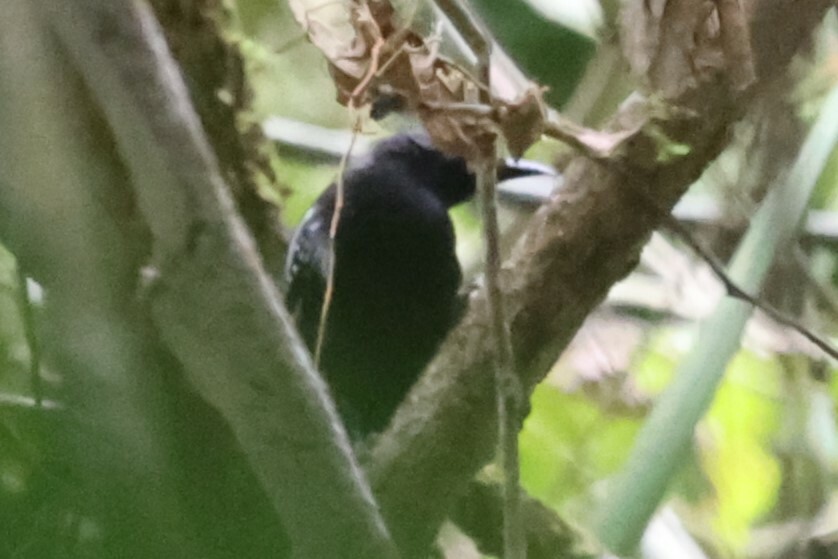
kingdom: Animalia
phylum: Chordata
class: Aves
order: Passeriformes
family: Thamnophilidae
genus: Myrmotherula
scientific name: Myrmotherula axillaris
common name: White-flanked antwren
